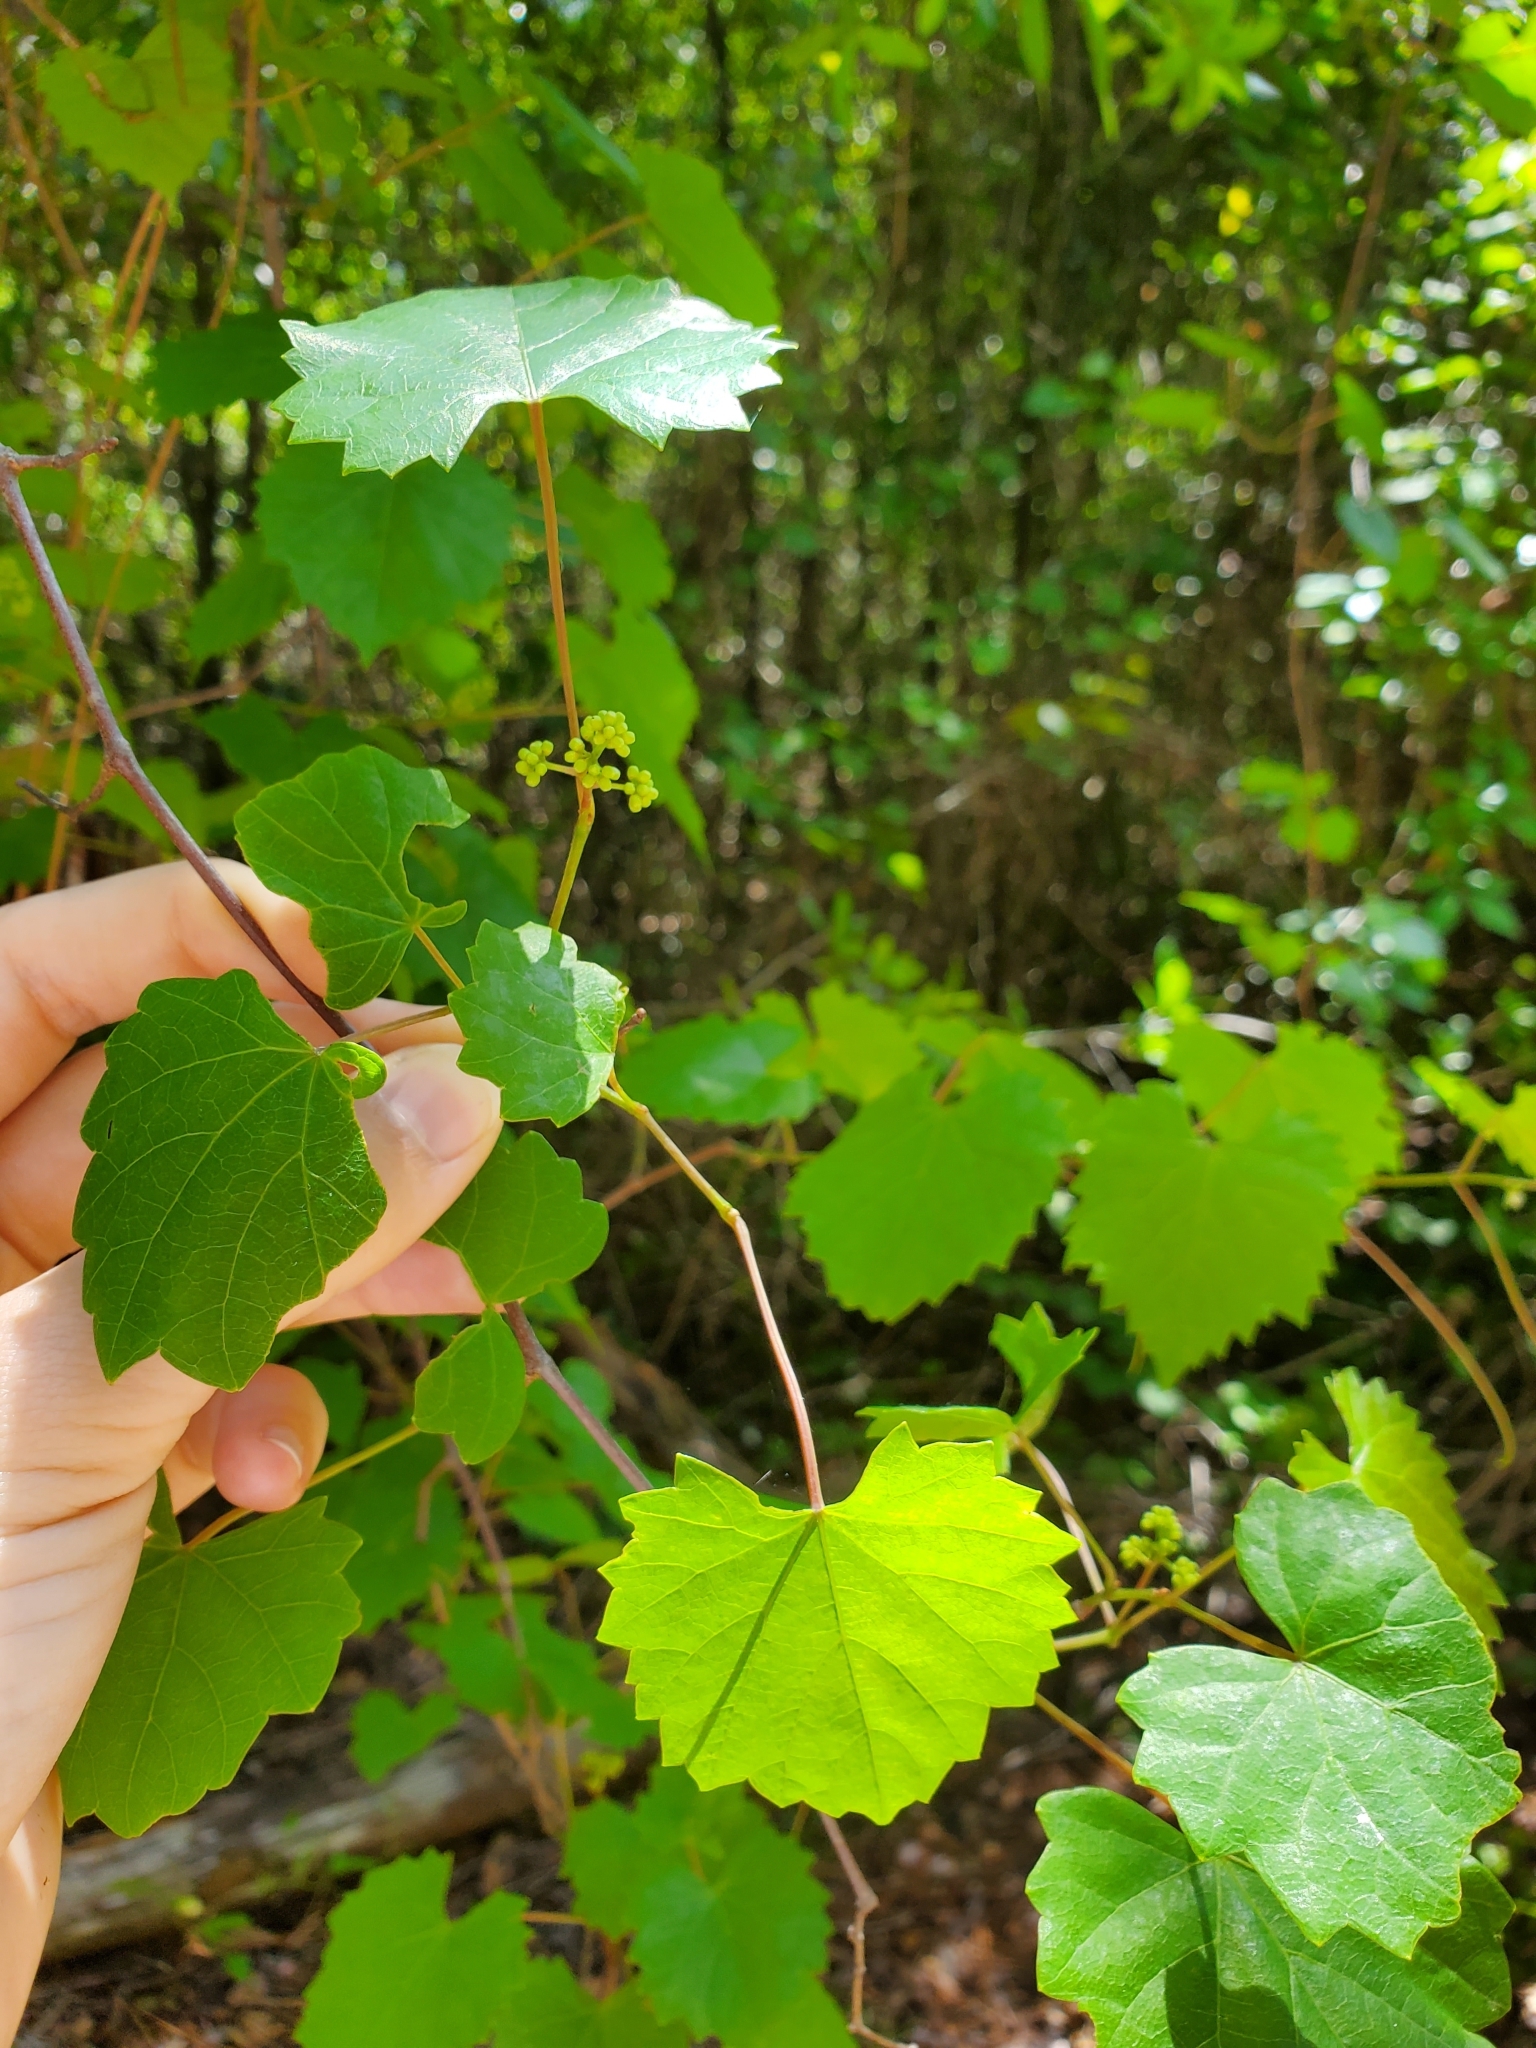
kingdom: Plantae
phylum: Tracheophyta
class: Magnoliopsida
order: Vitales
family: Vitaceae
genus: Vitis
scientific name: Vitis rotundifolia
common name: Muscadine grape
